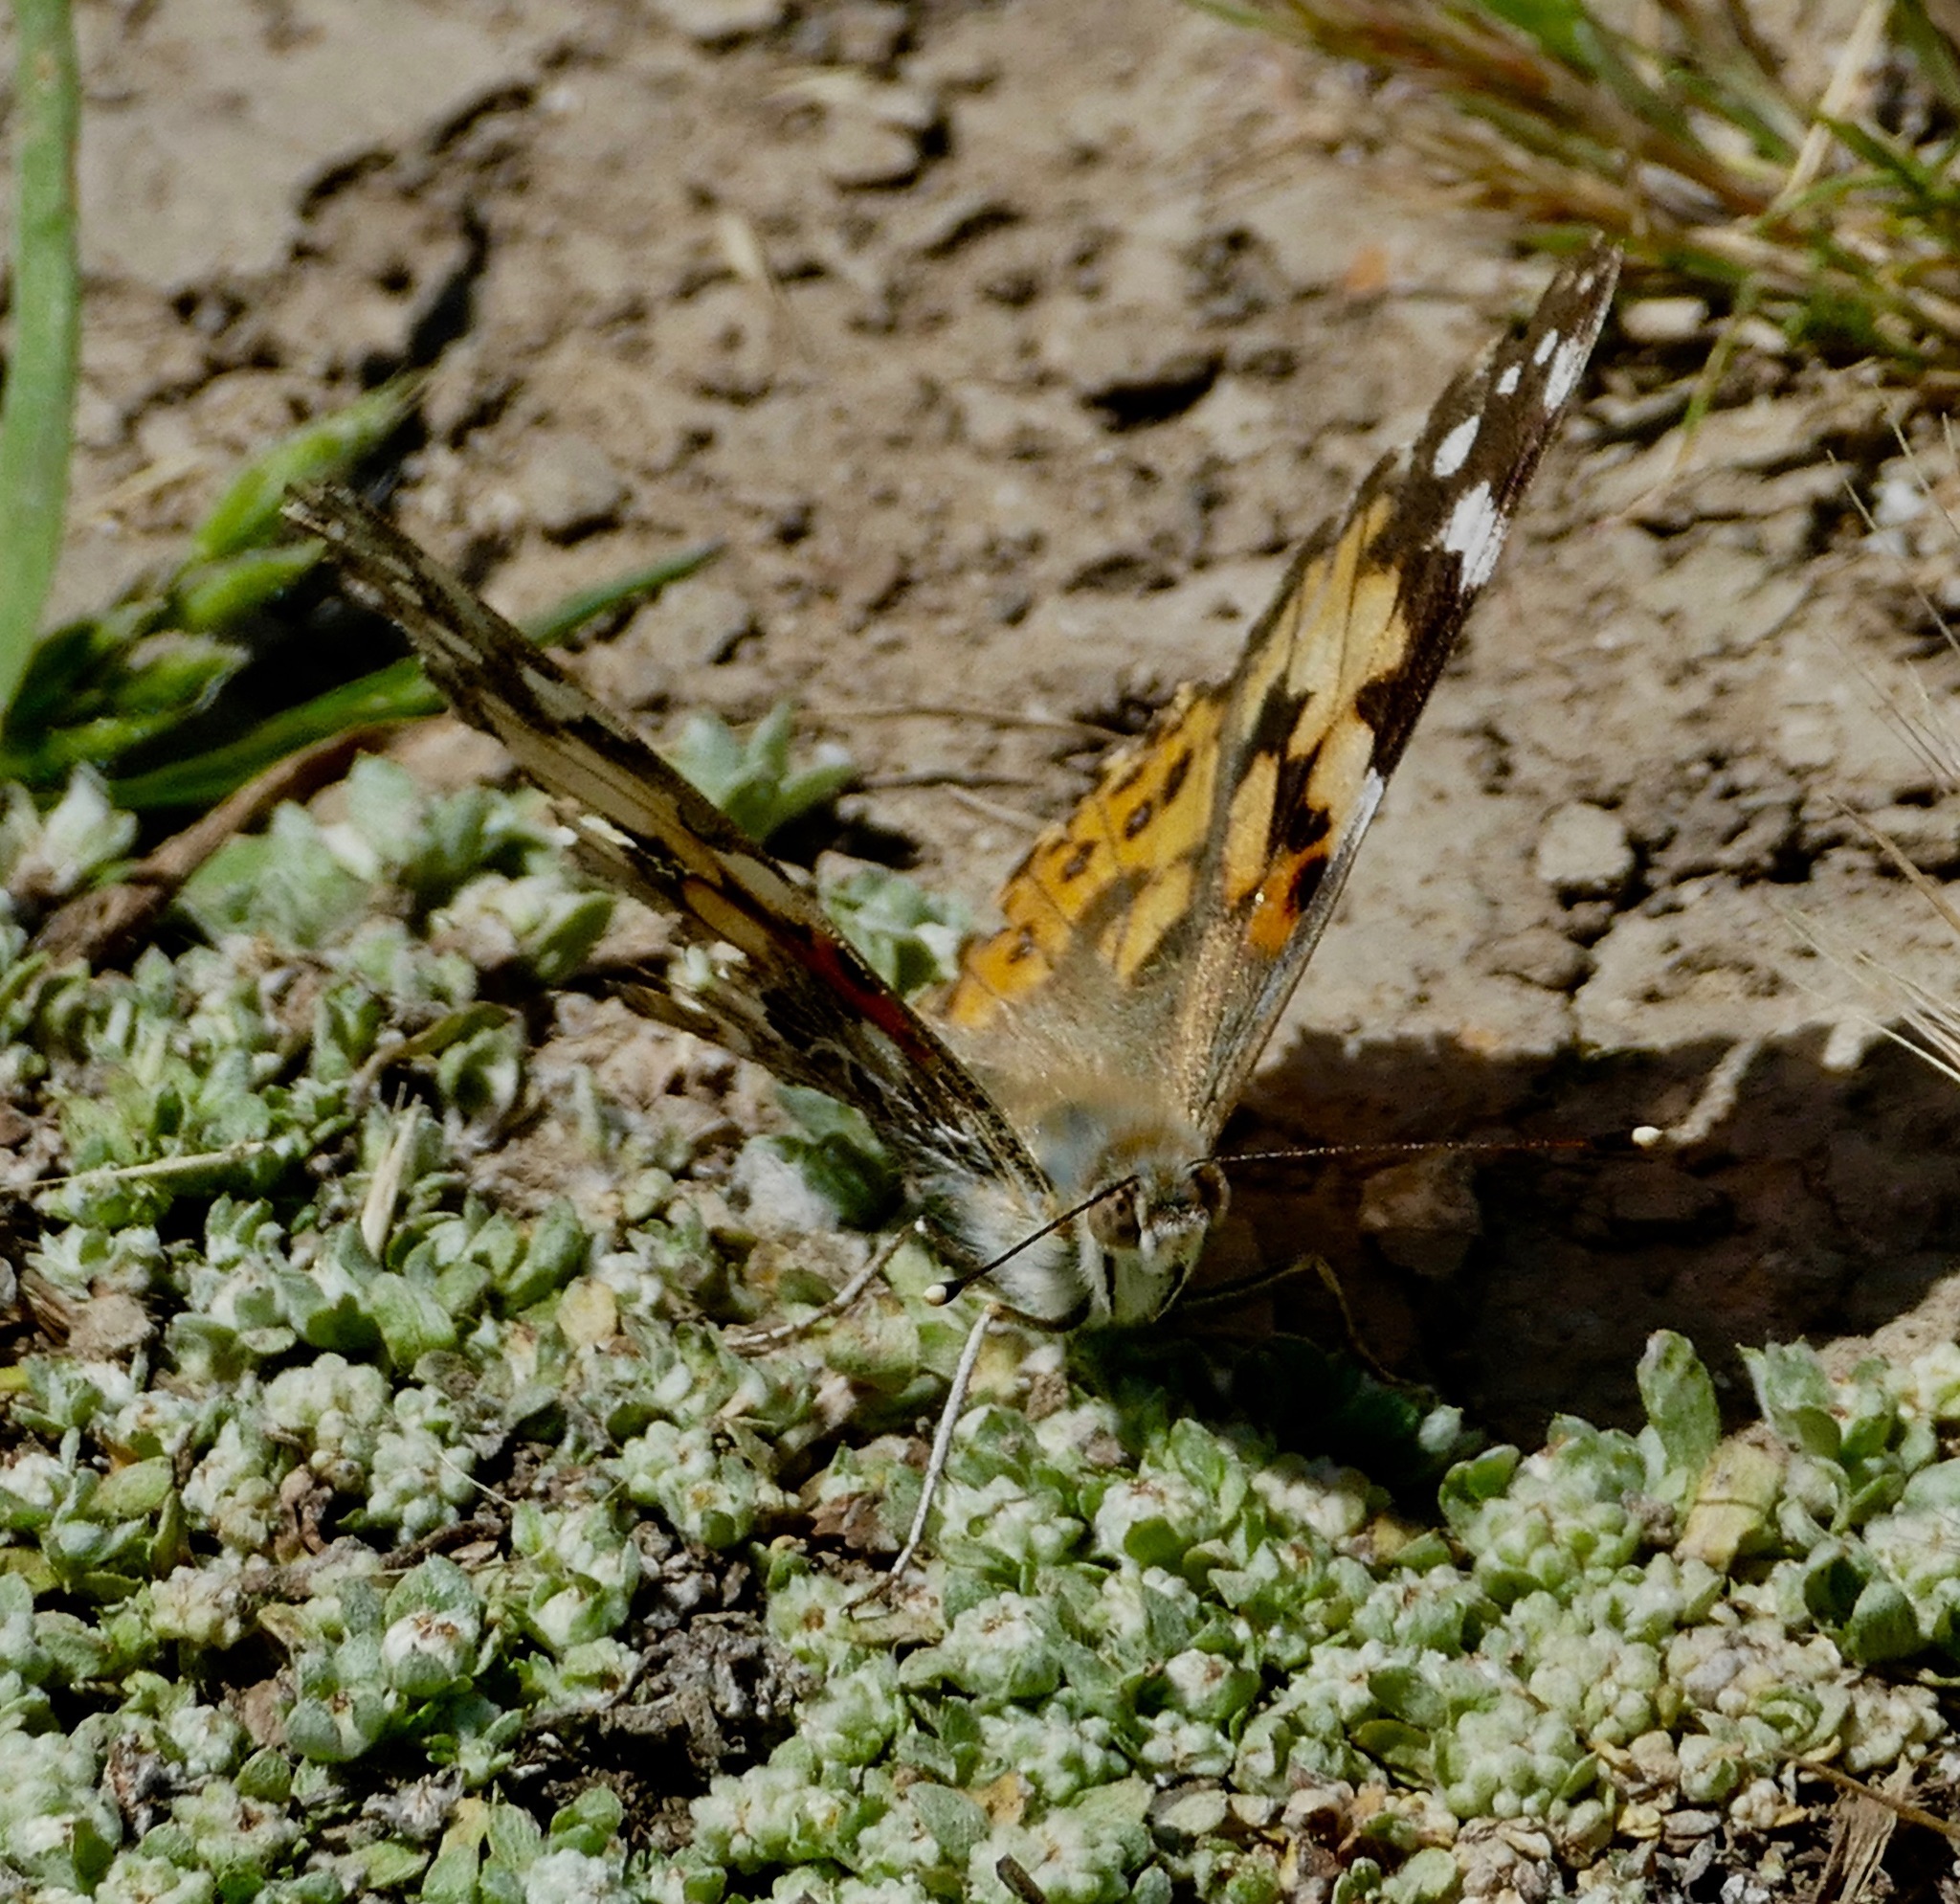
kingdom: Animalia
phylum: Arthropoda
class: Insecta
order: Lepidoptera
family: Nymphalidae
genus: Vanessa
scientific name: Vanessa cardui
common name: Painted lady
